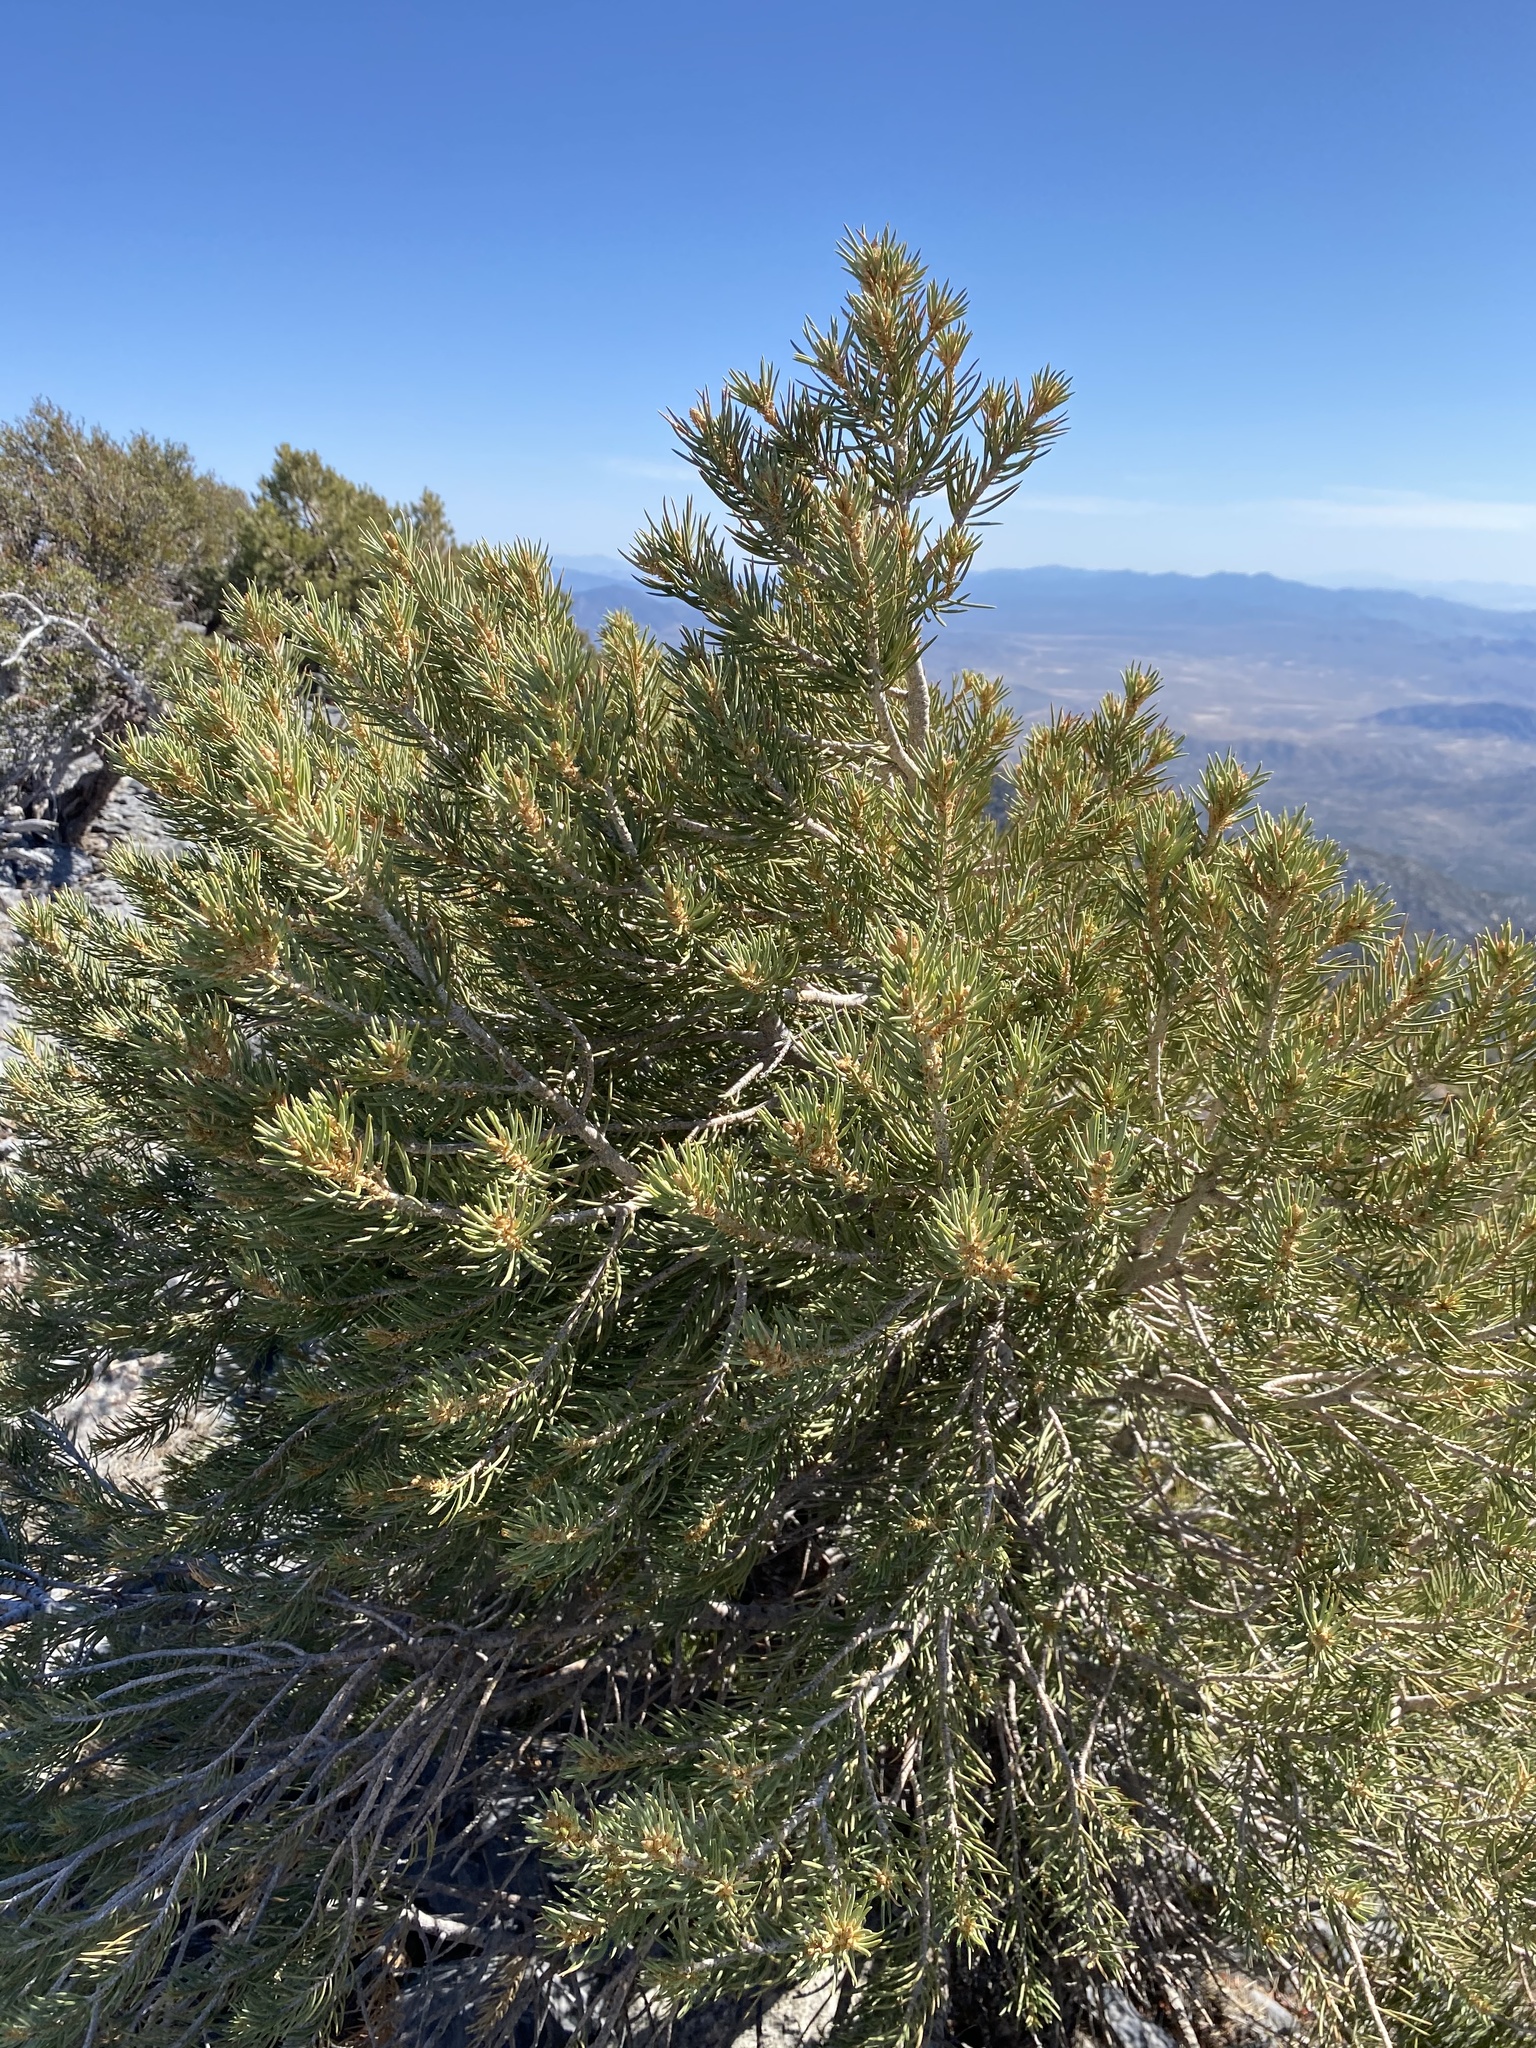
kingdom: Plantae
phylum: Tracheophyta
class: Pinopsida
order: Pinales
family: Pinaceae
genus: Pinus
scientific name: Pinus monophylla
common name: One-leaved nut pine
